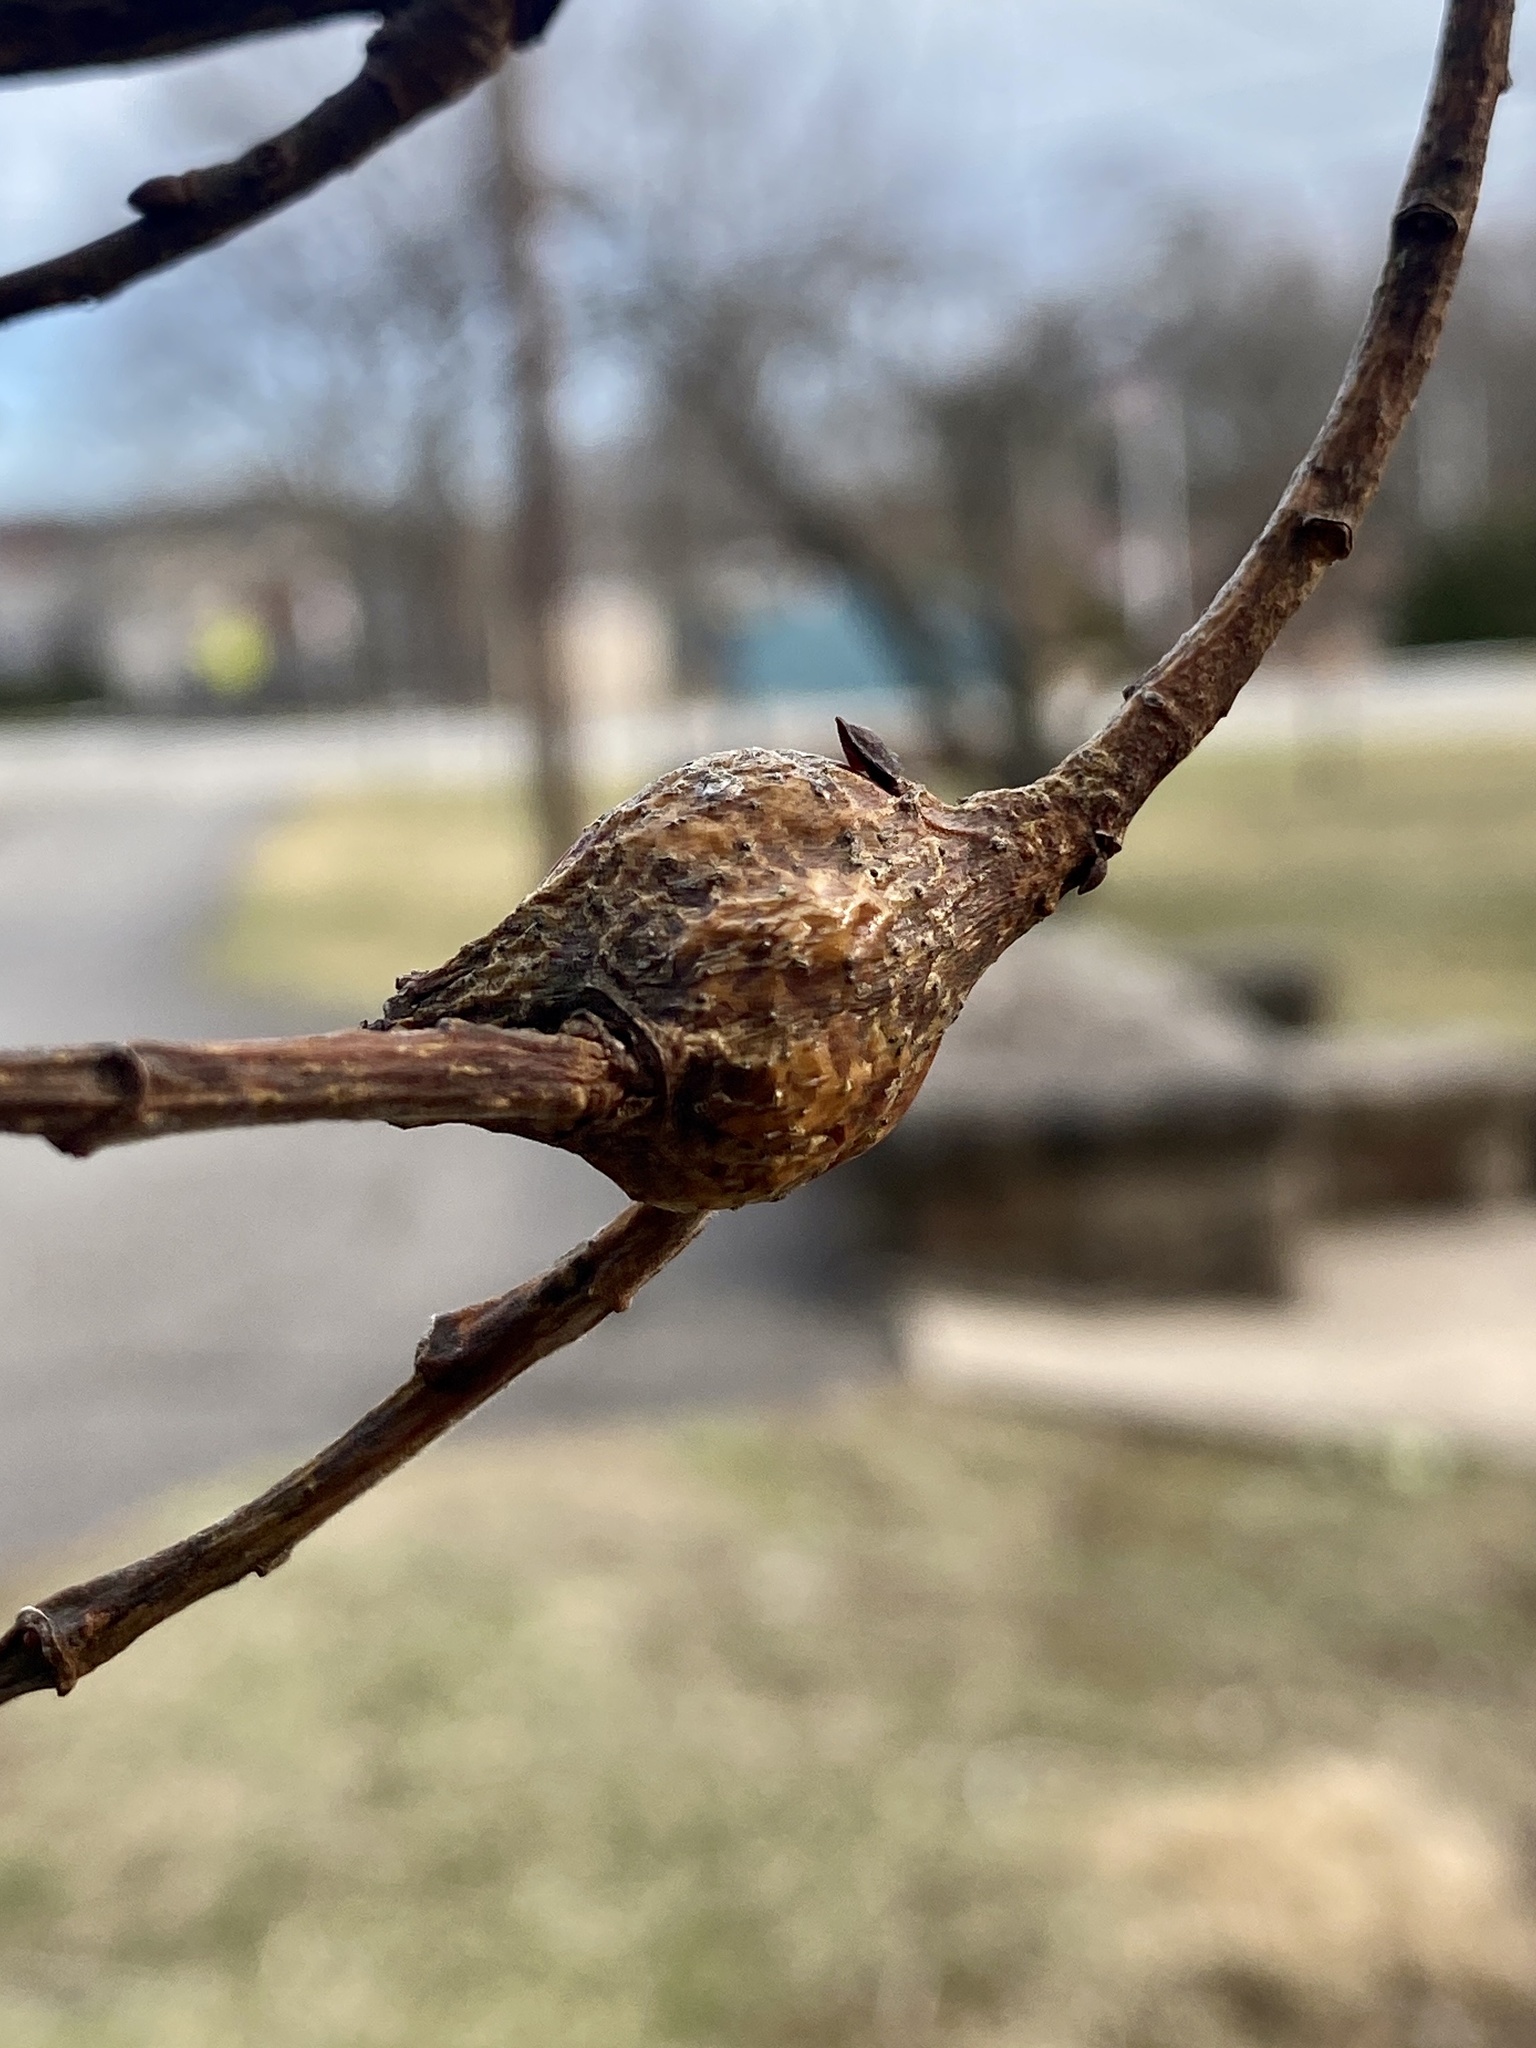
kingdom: Animalia
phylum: Arthropoda
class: Insecta
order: Diptera
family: Cecidomyiidae
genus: Thecodiplosis
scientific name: Thecodiplosis pinirigidae
